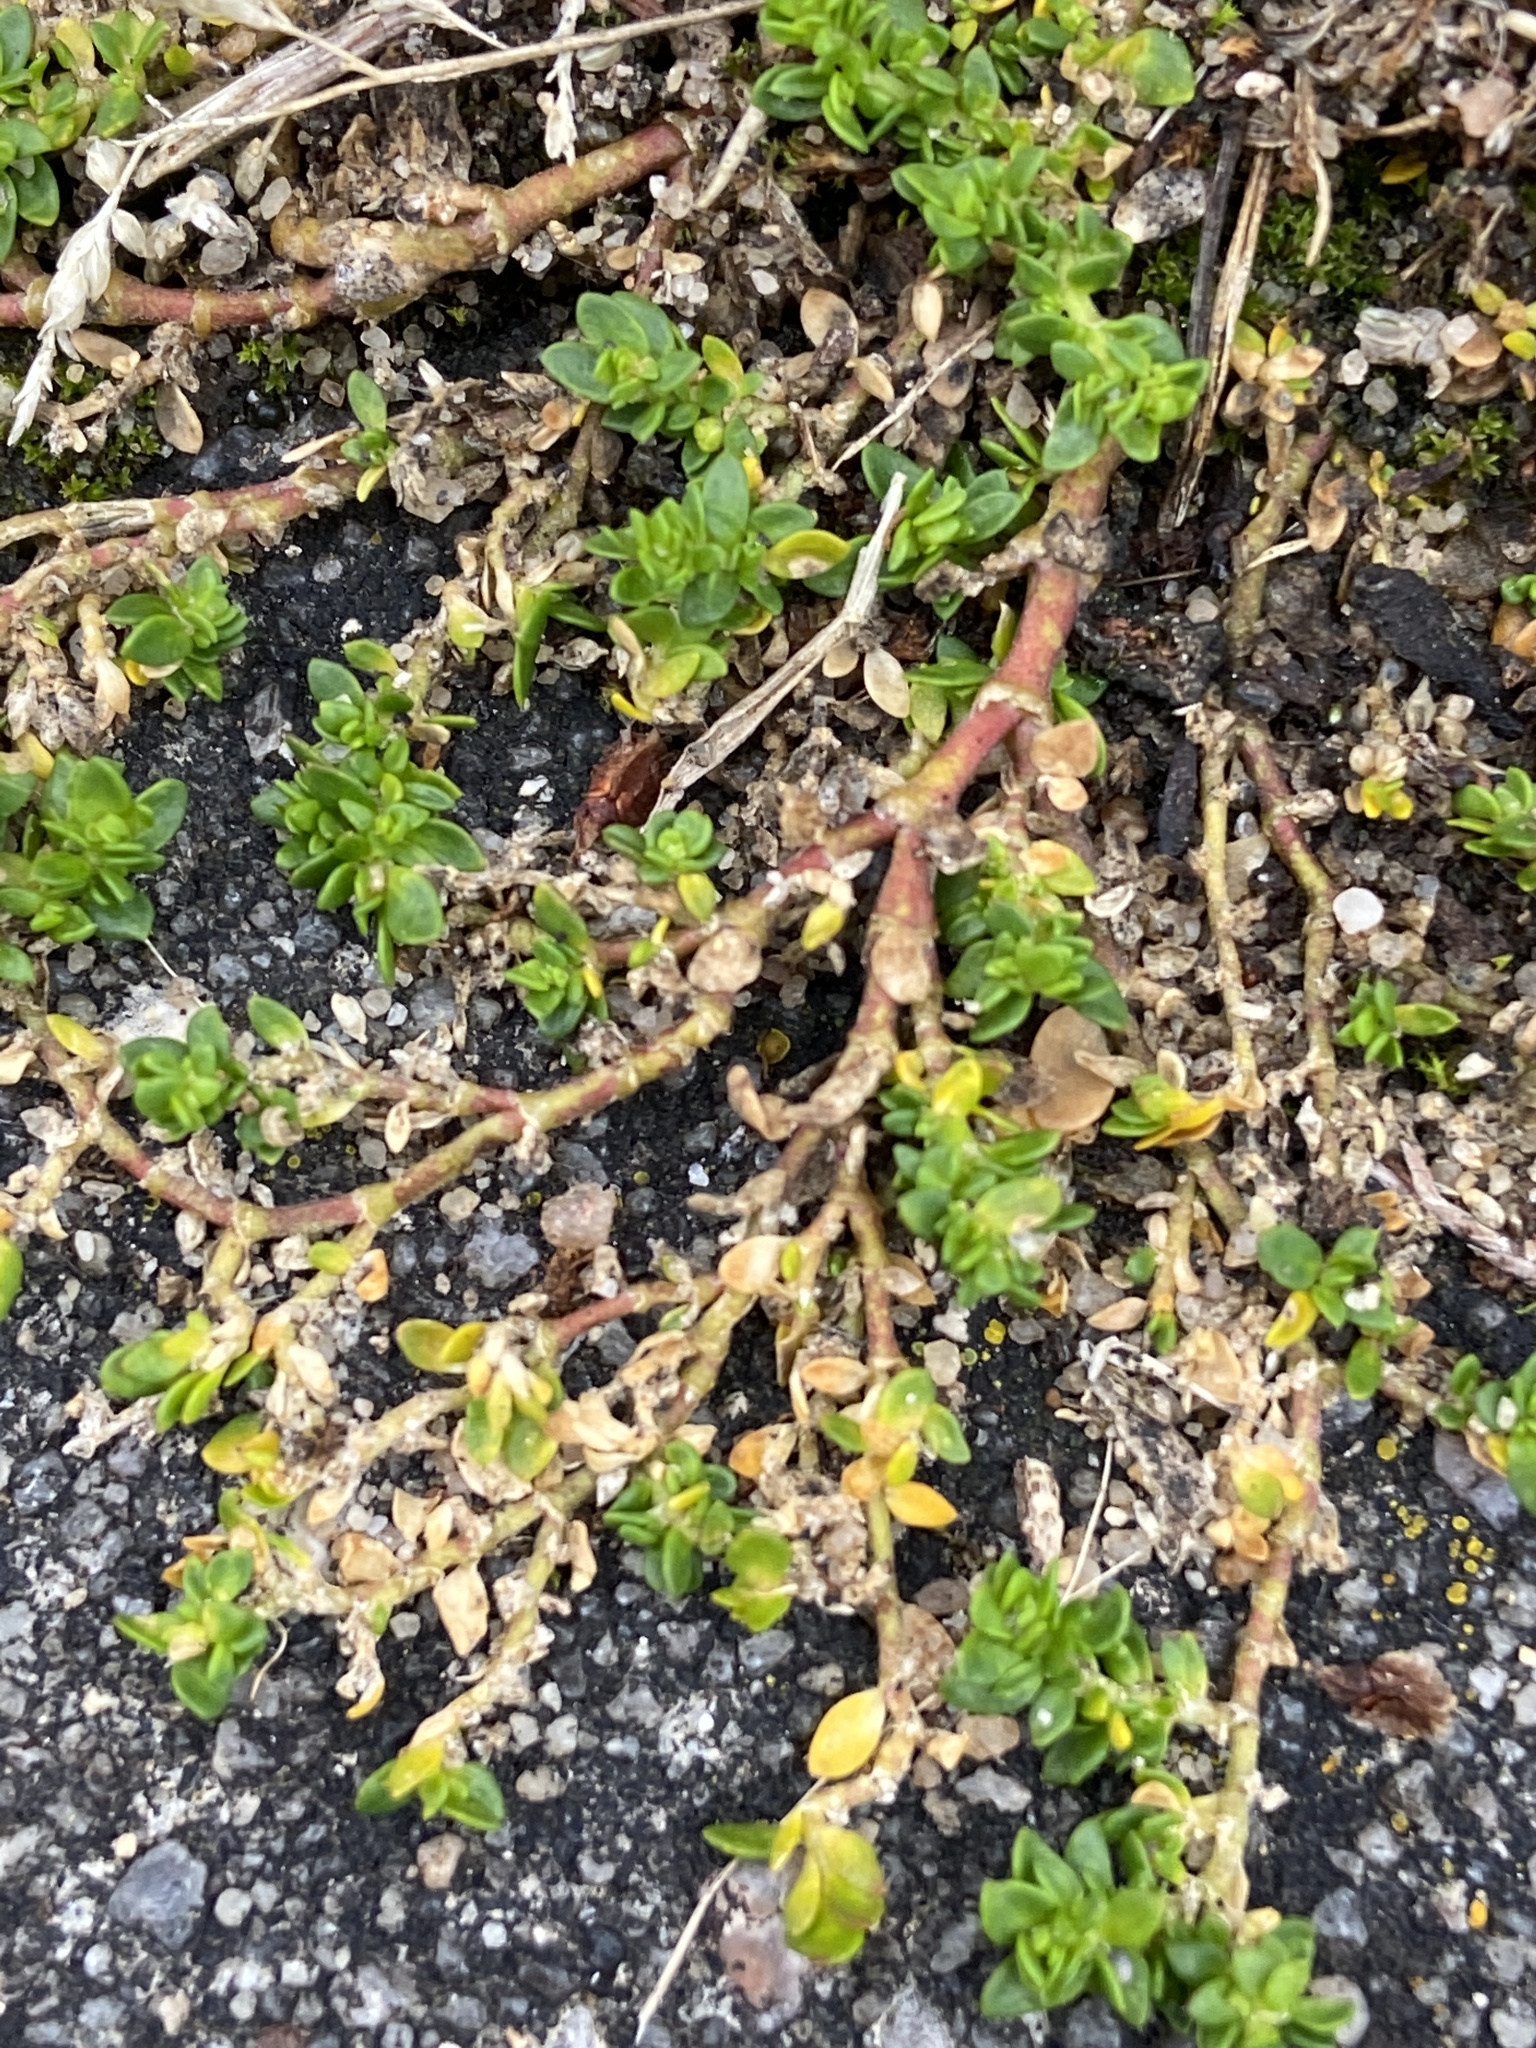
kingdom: Plantae
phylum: Tracheophyta
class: Magnoliopsida
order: Caryophyllales
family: Caryophyllaceae
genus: Herniaria
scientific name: Herniaria glabra
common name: Smooth rupturewort
